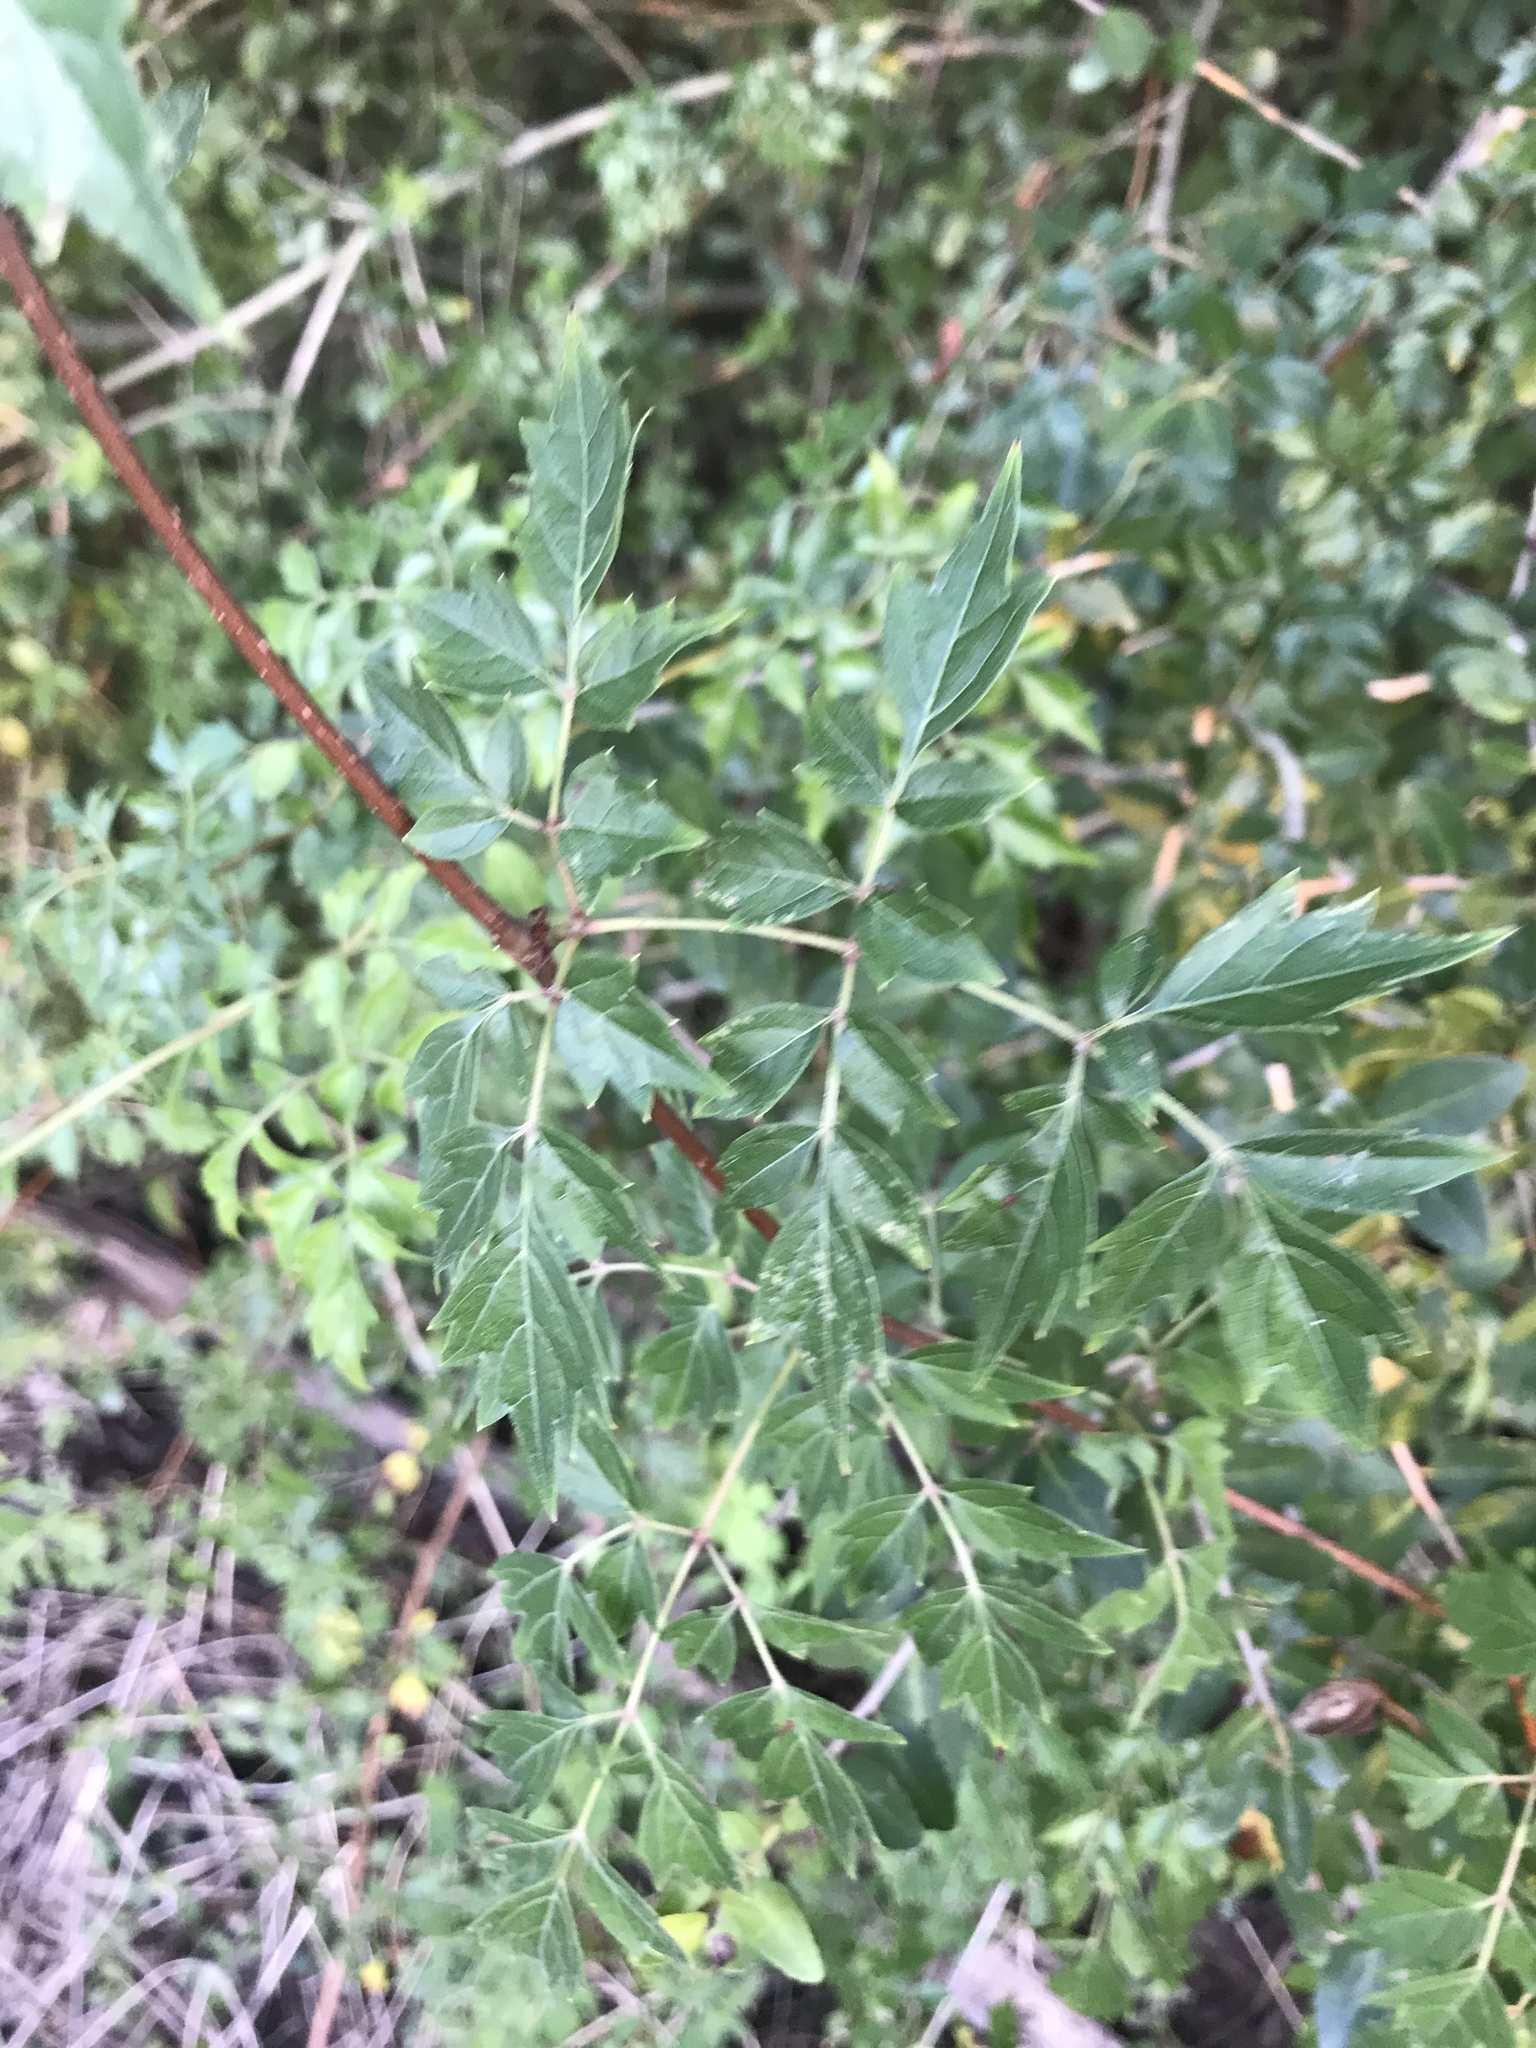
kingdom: Plantae
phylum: Tracheophyta
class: Magnoliopsida
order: Vitales
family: Vitaceae
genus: Nekemias
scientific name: Nekemias arborea
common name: Peppervine
